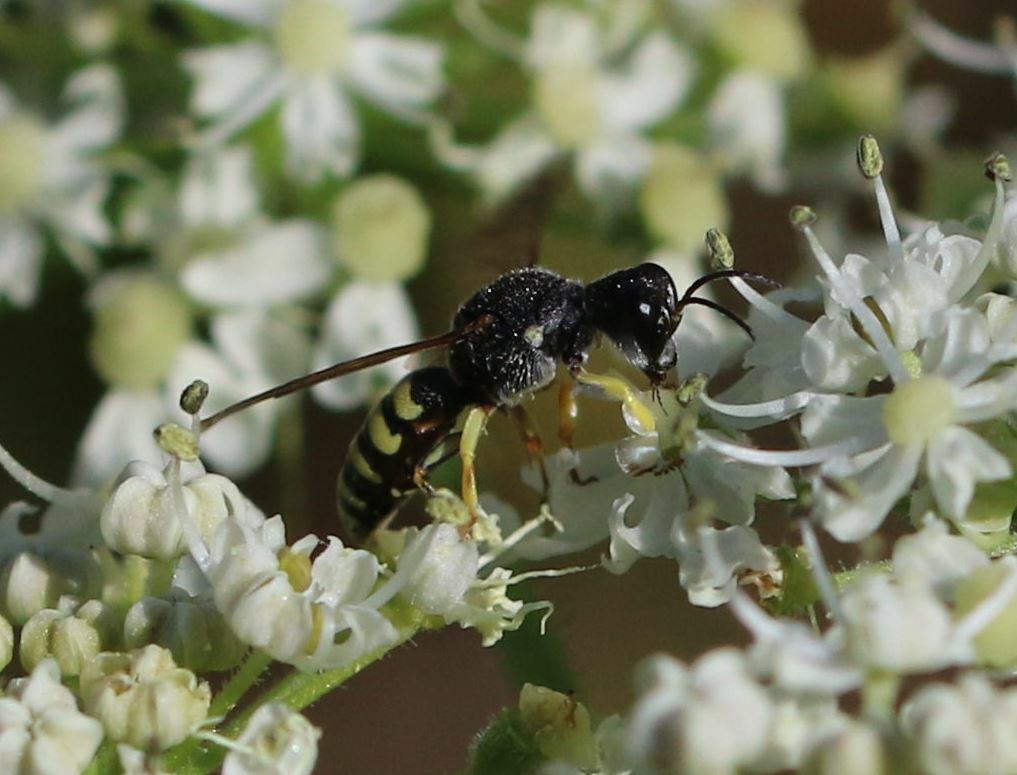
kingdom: Animalia
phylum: Arthropoda
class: Insecta
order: Hymenoptera
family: Crabronidae
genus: Lestica
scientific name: Lestica clypeata
